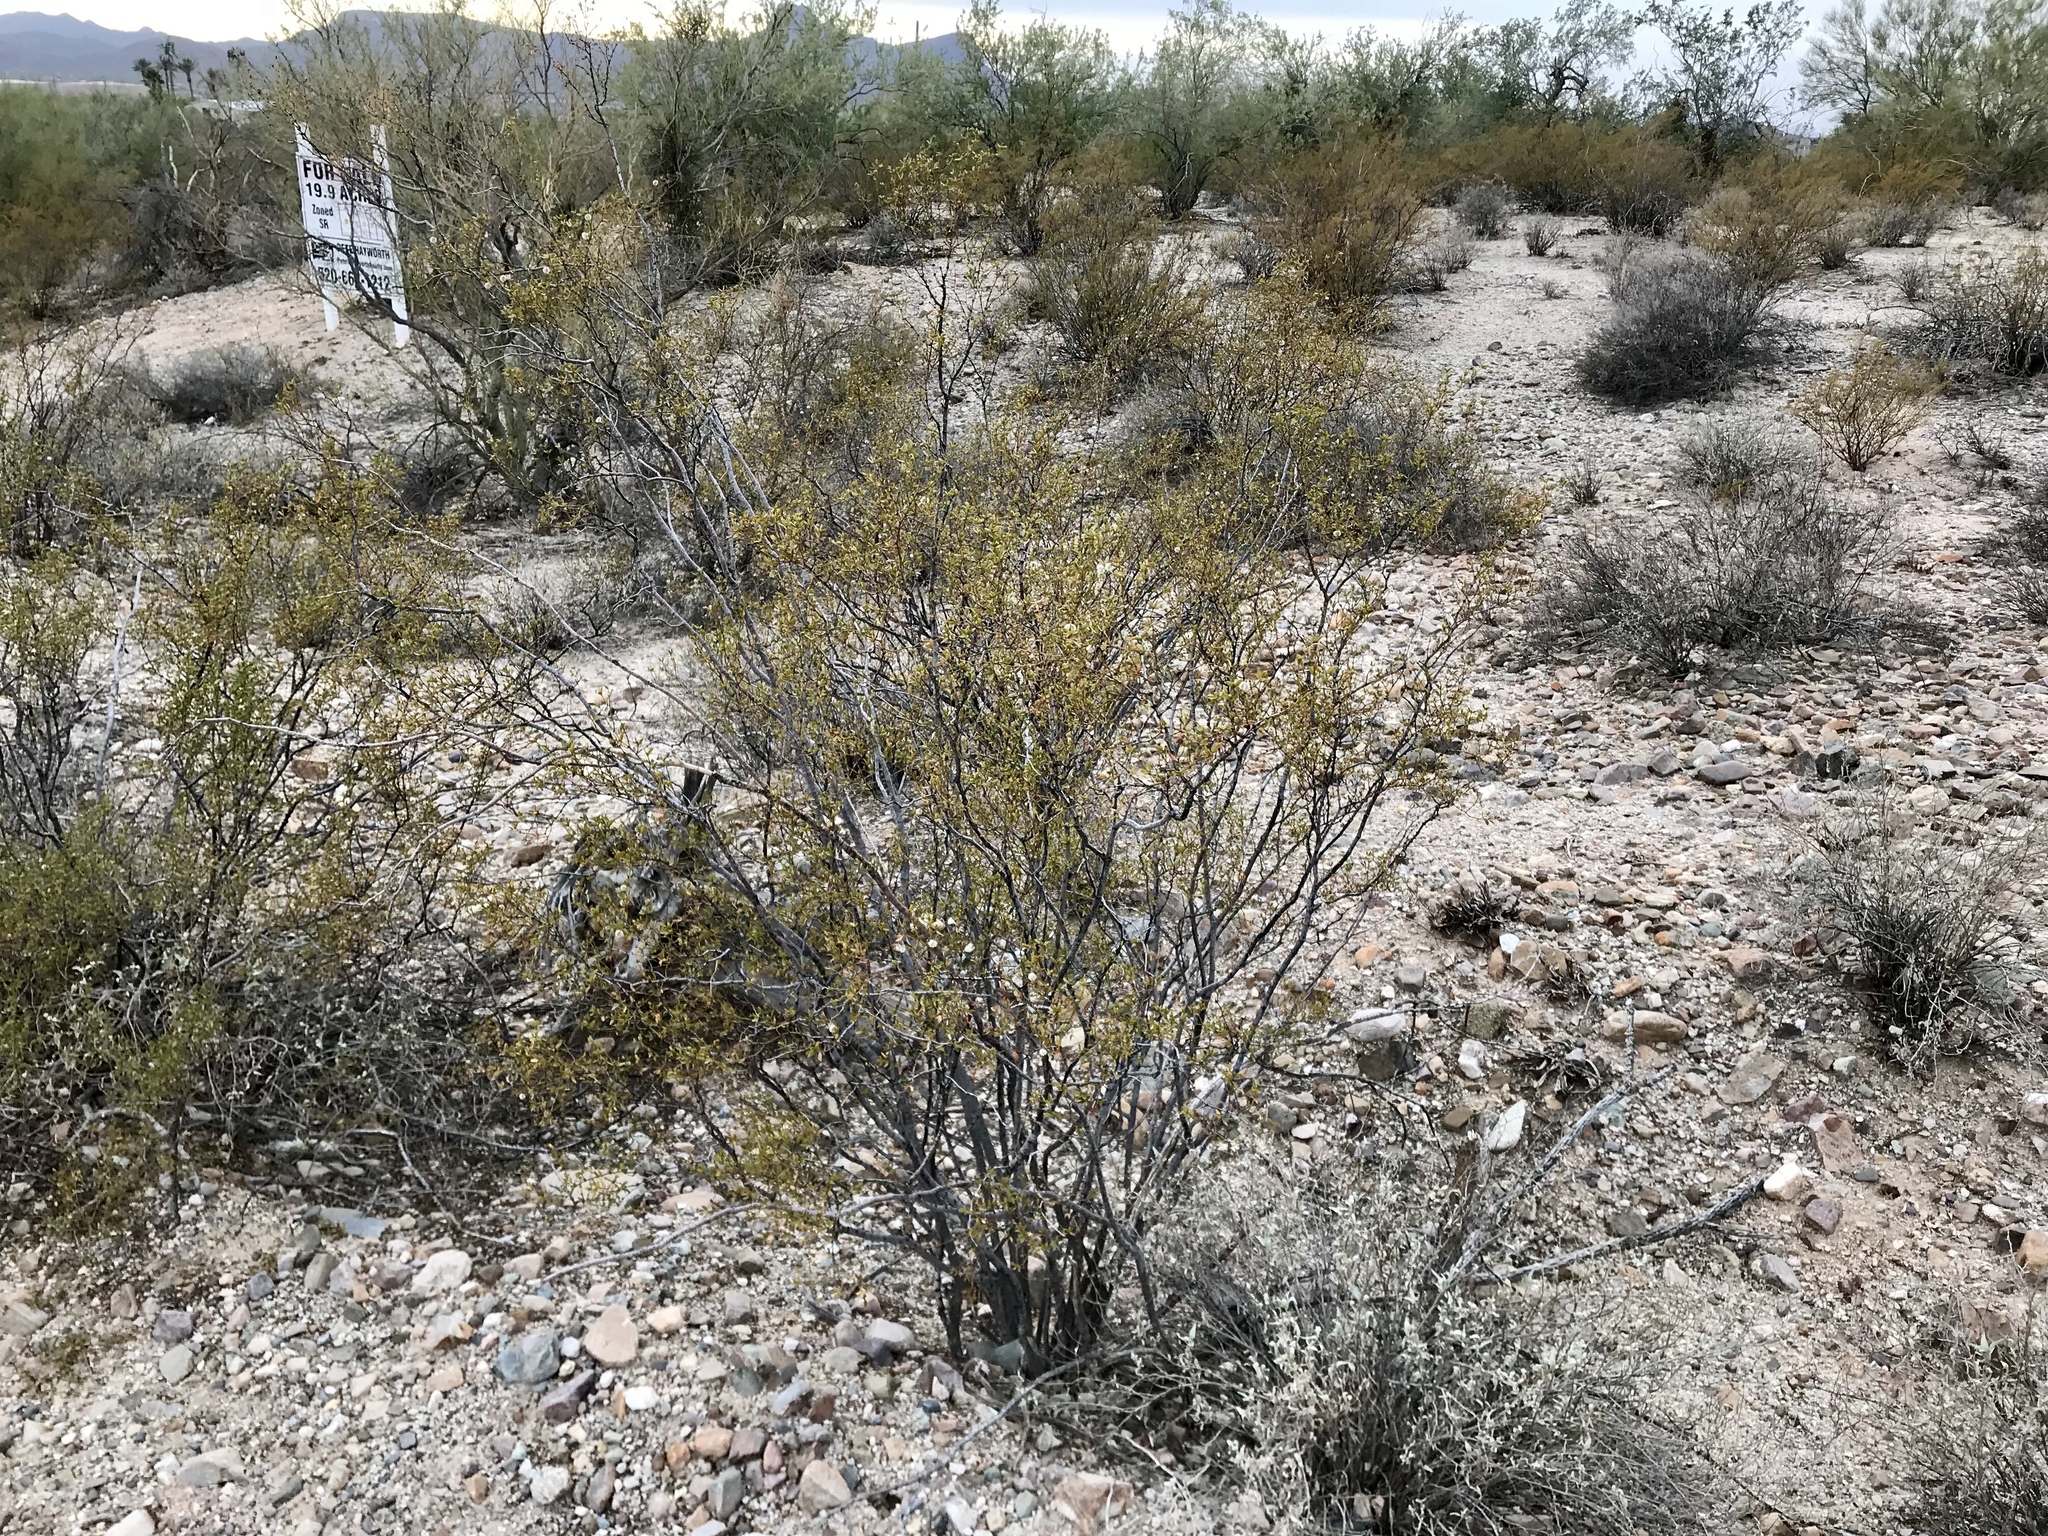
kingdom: Plantae
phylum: Tracheophyta
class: Magnoliopsida
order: Zygophyllales
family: Zygophyllaceae
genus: Larrea
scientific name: Larrea tridentata
